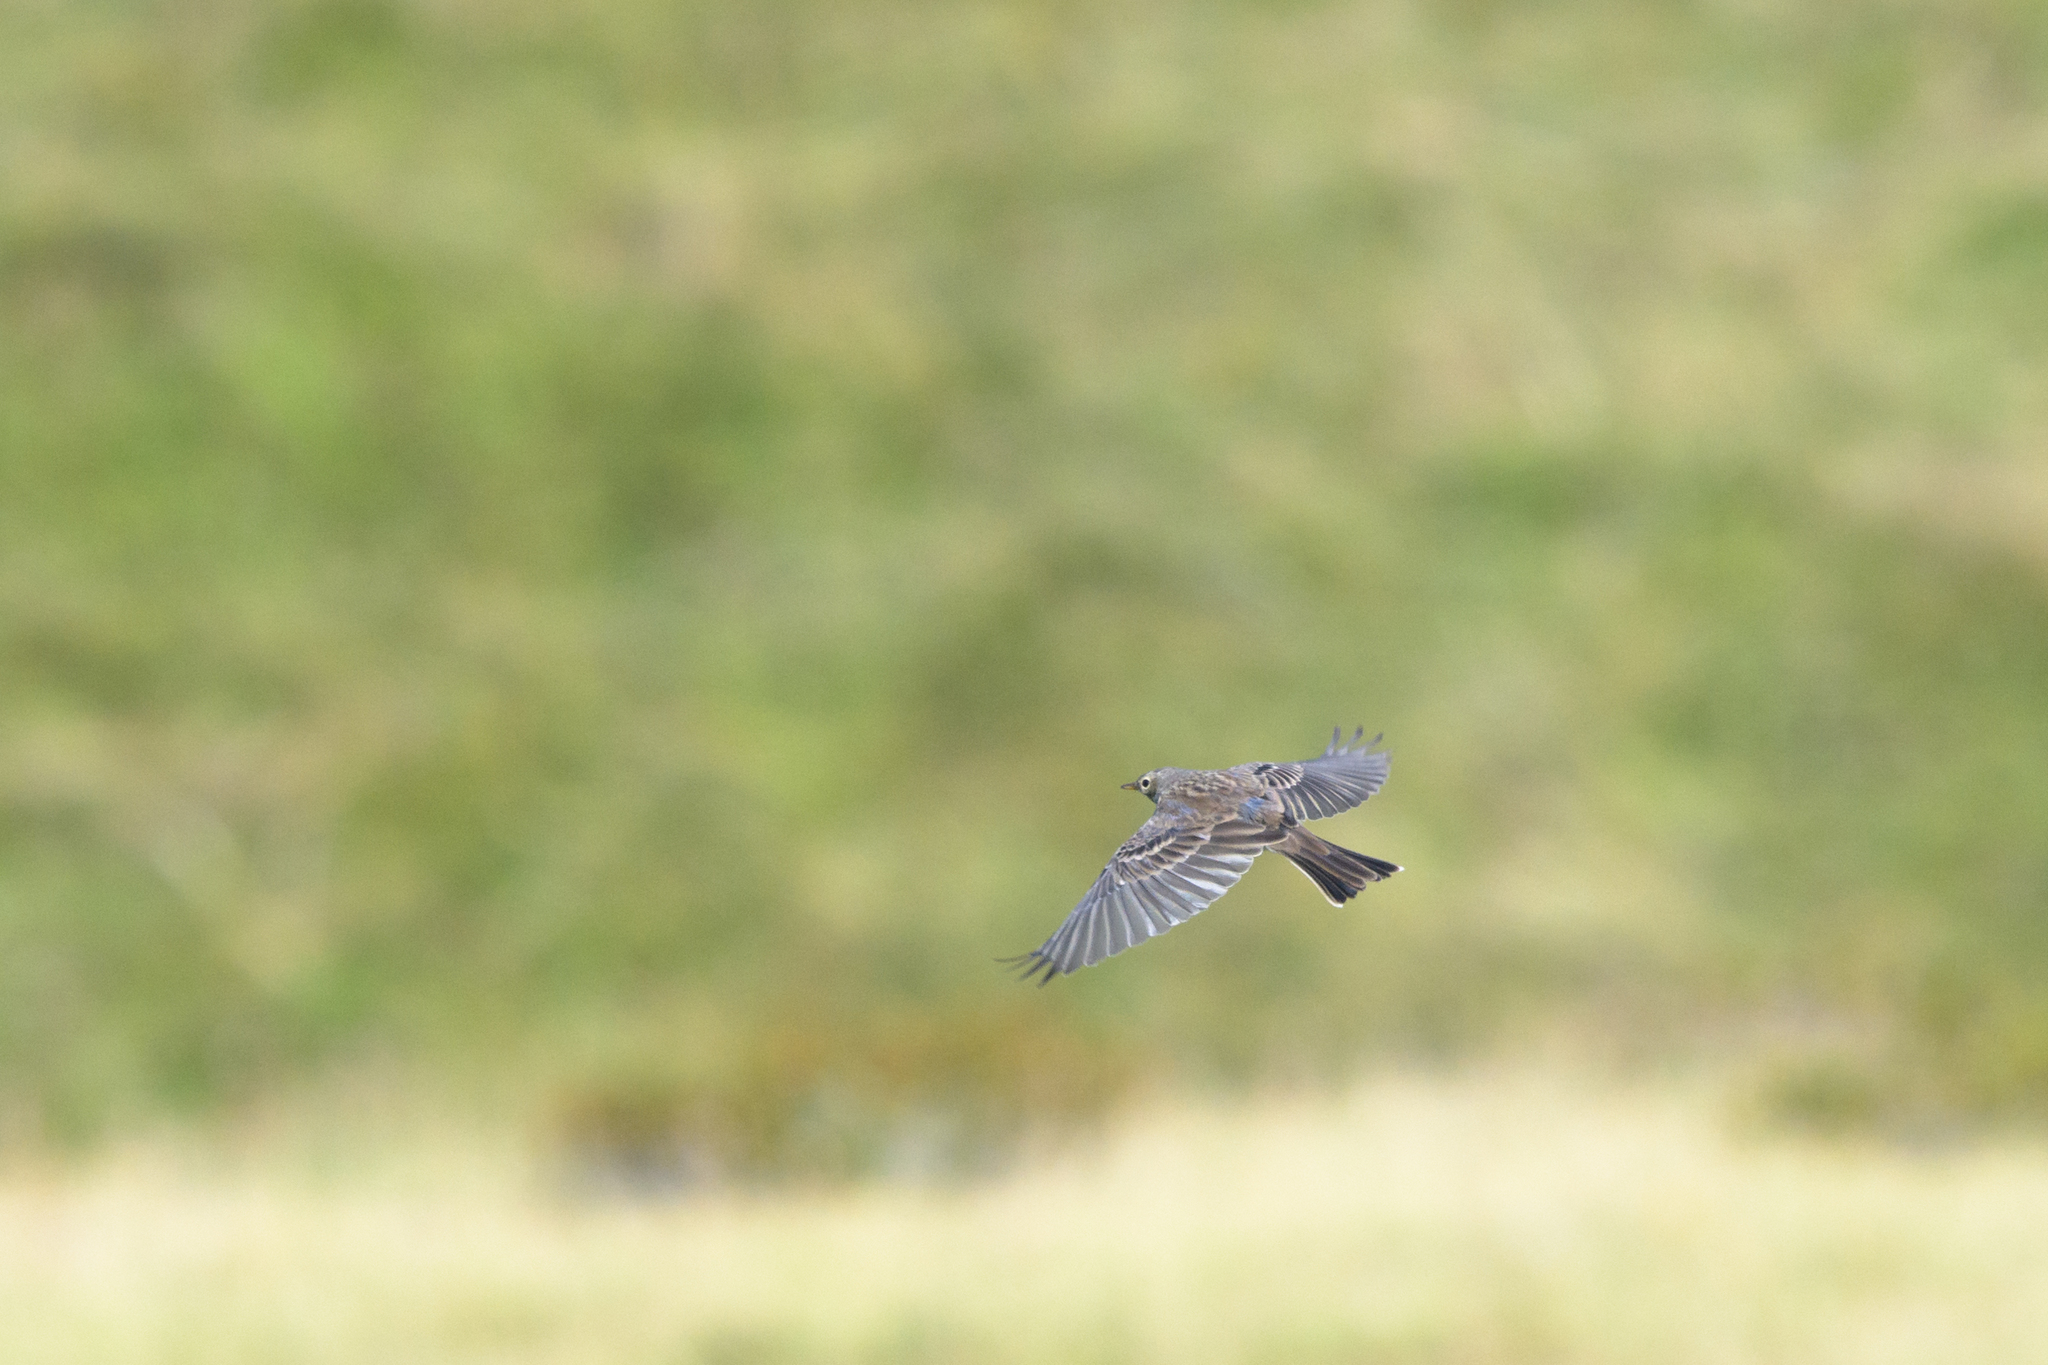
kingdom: Animalia
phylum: Chordata
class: Aves
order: Passeriformes
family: Motacillidae
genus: Anthus
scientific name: Anthus spinoletta
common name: Water pipit
